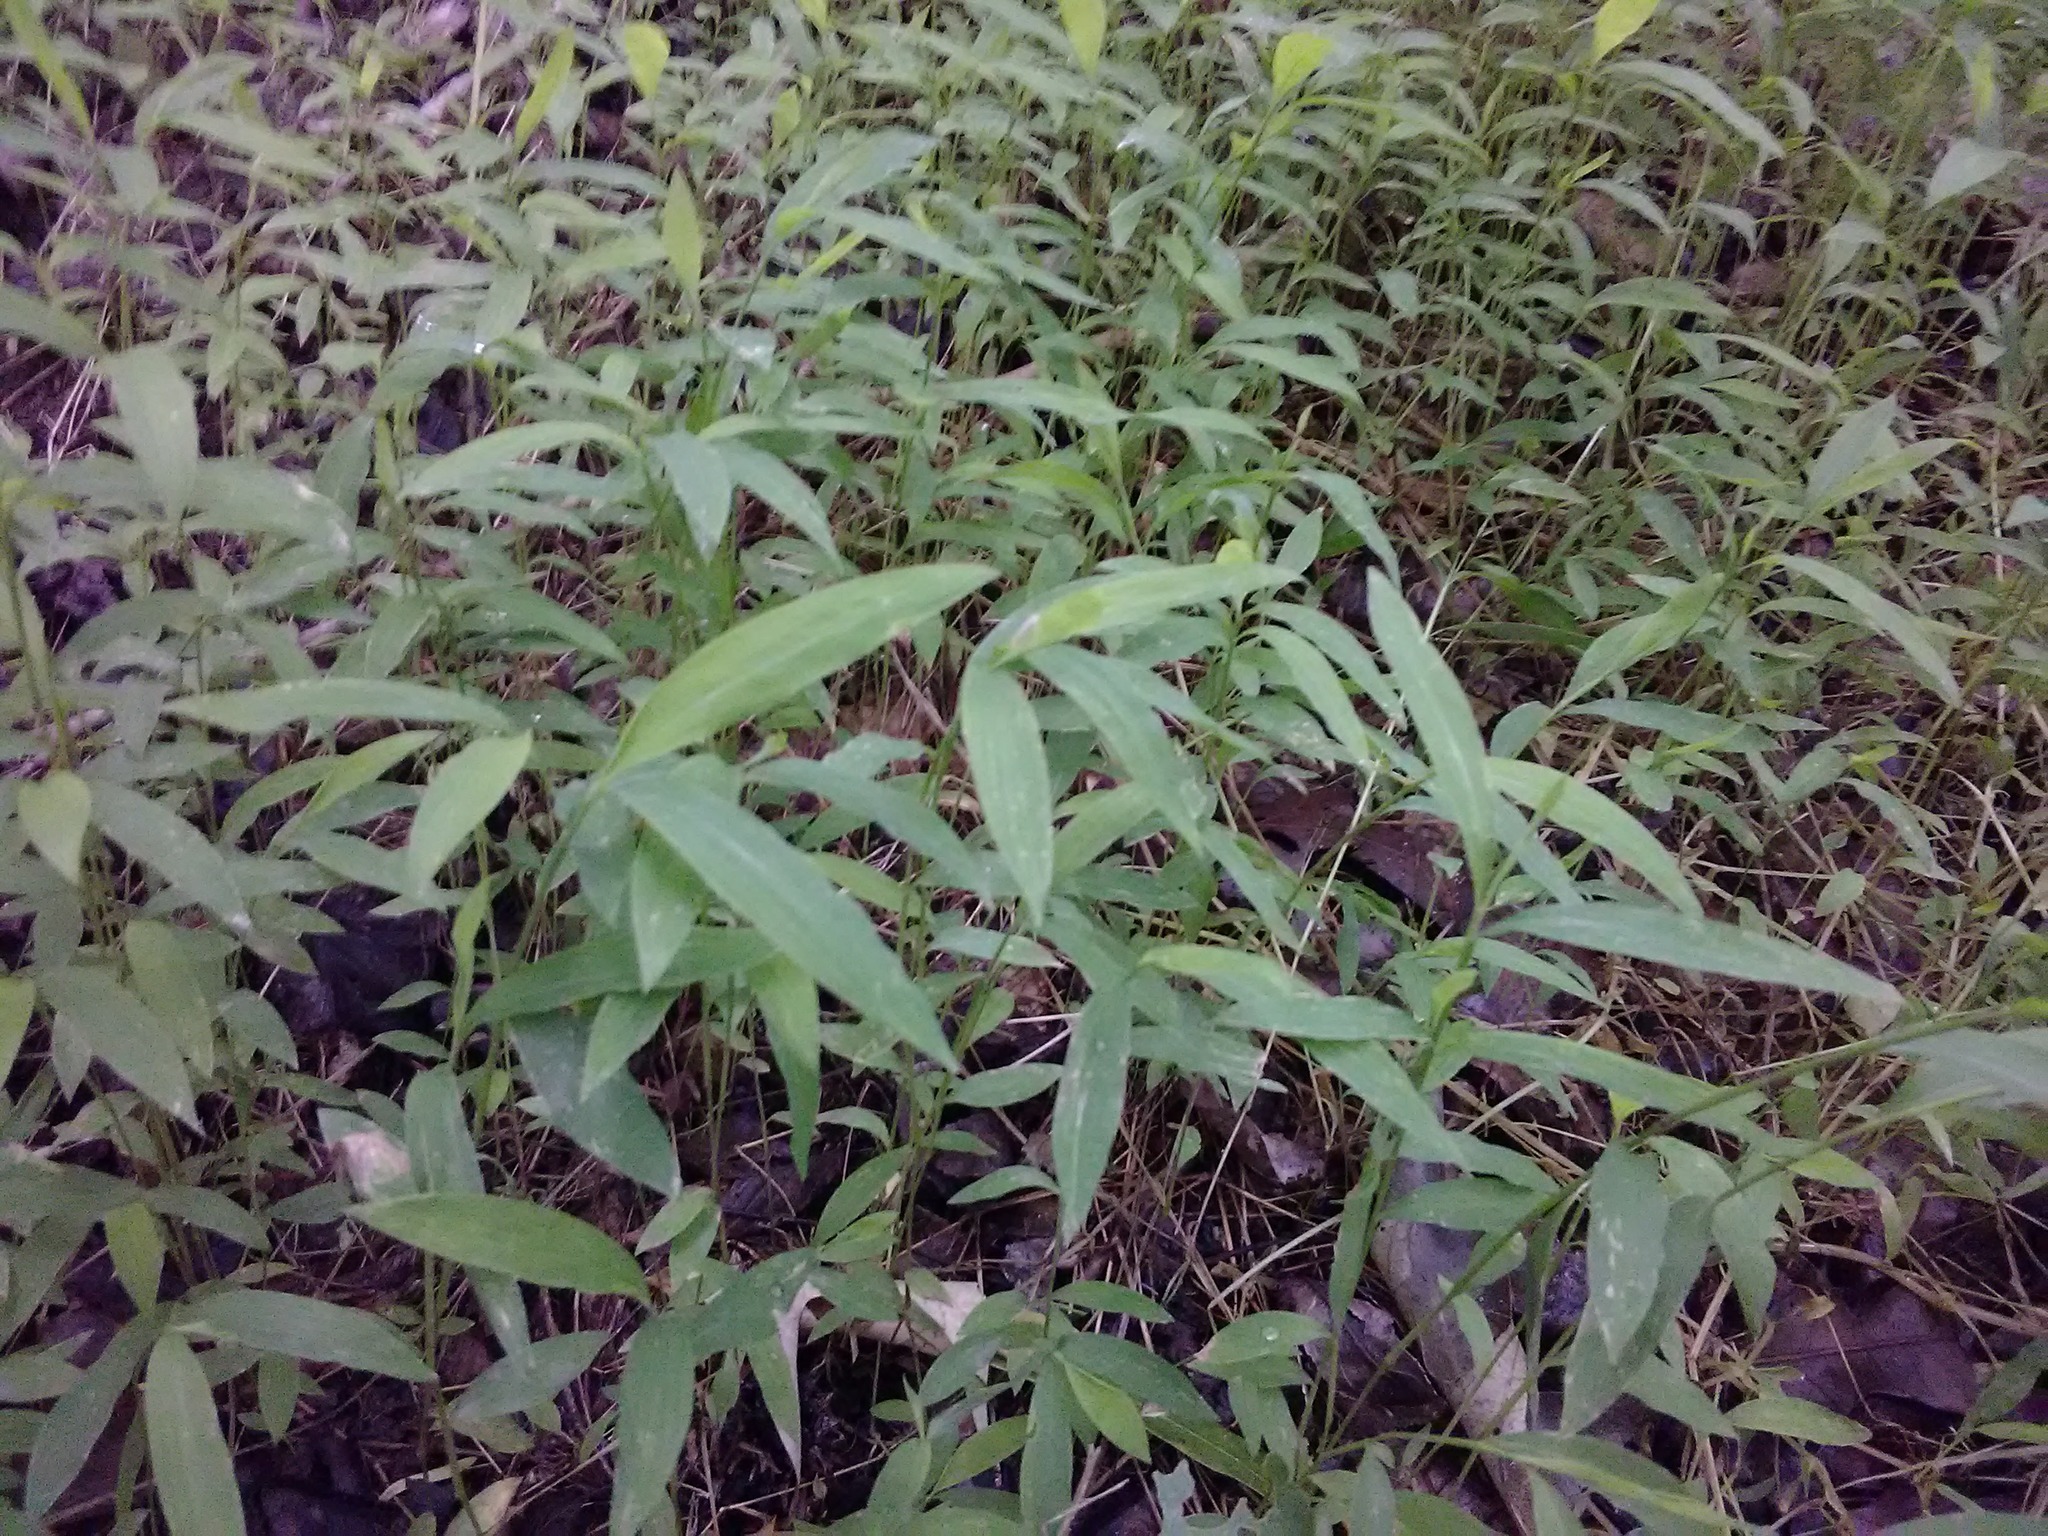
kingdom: Plantae
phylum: Tracheophyta
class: Liliopsida
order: Poales
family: Poaceae
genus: Microstegium
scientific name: Microstegium vimineum
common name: Japanese stiltgrass
